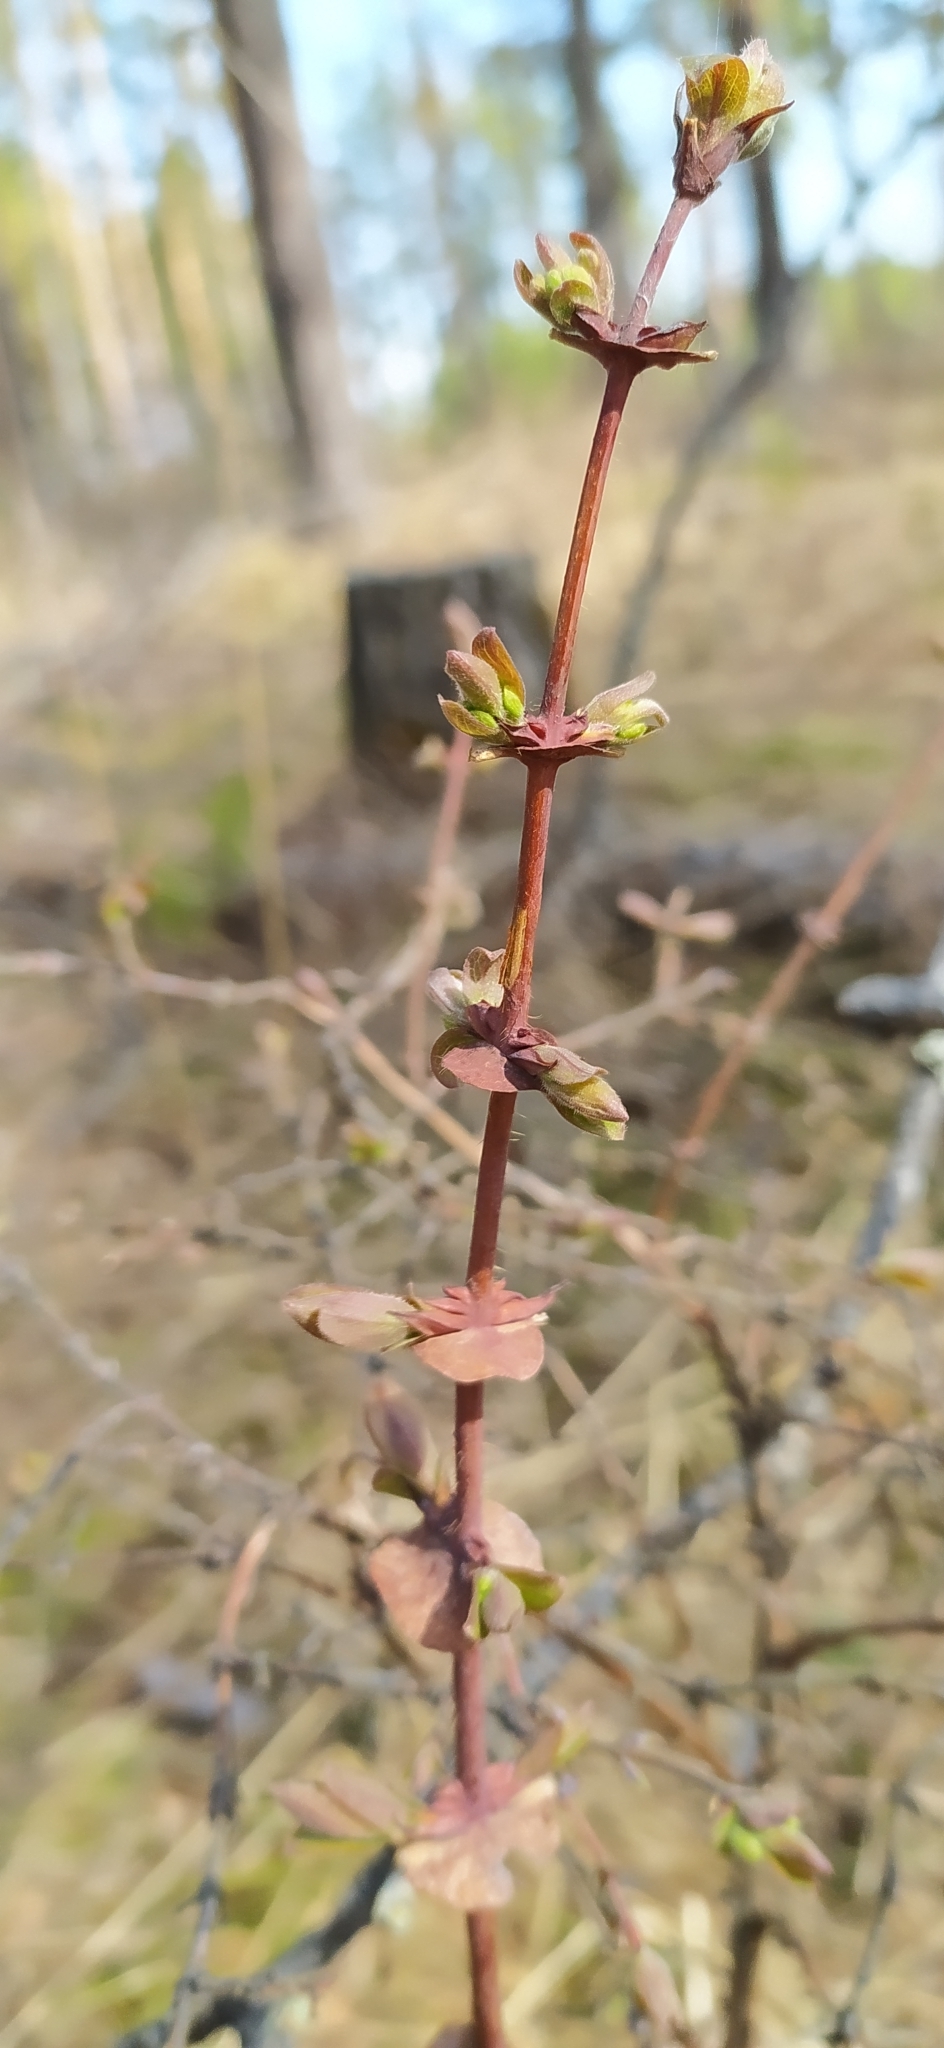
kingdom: Plantae
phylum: Tracheophyta
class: Magnoliopsida
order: Dipsacales
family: Caprifoliaceae
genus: Lonicera
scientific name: Lonicera caerulea
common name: Blue honeysuckle
